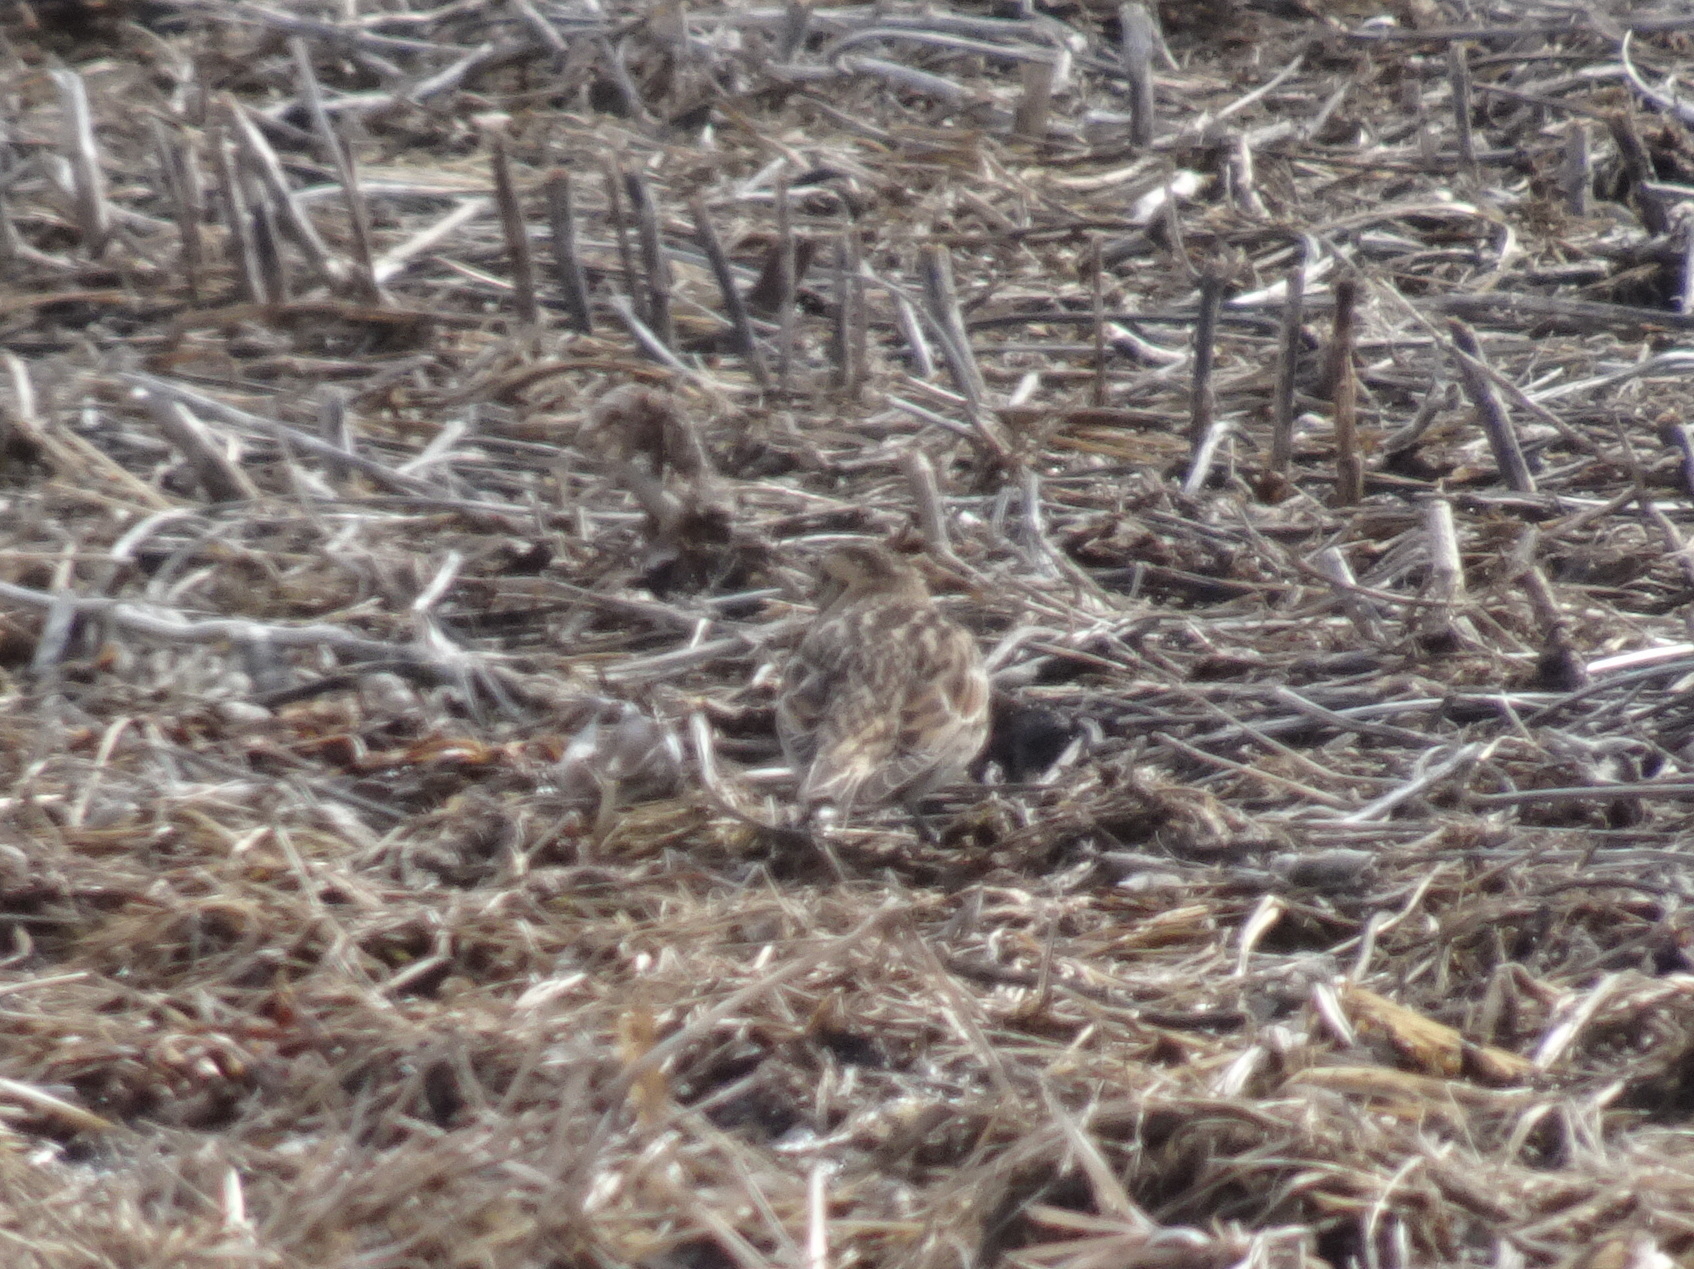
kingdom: Animalia
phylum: Chordata
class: Aves
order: Passeriformes
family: Calcariidae
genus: Calcarius
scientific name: Calcarius lapponicus
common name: Lapland longspur
